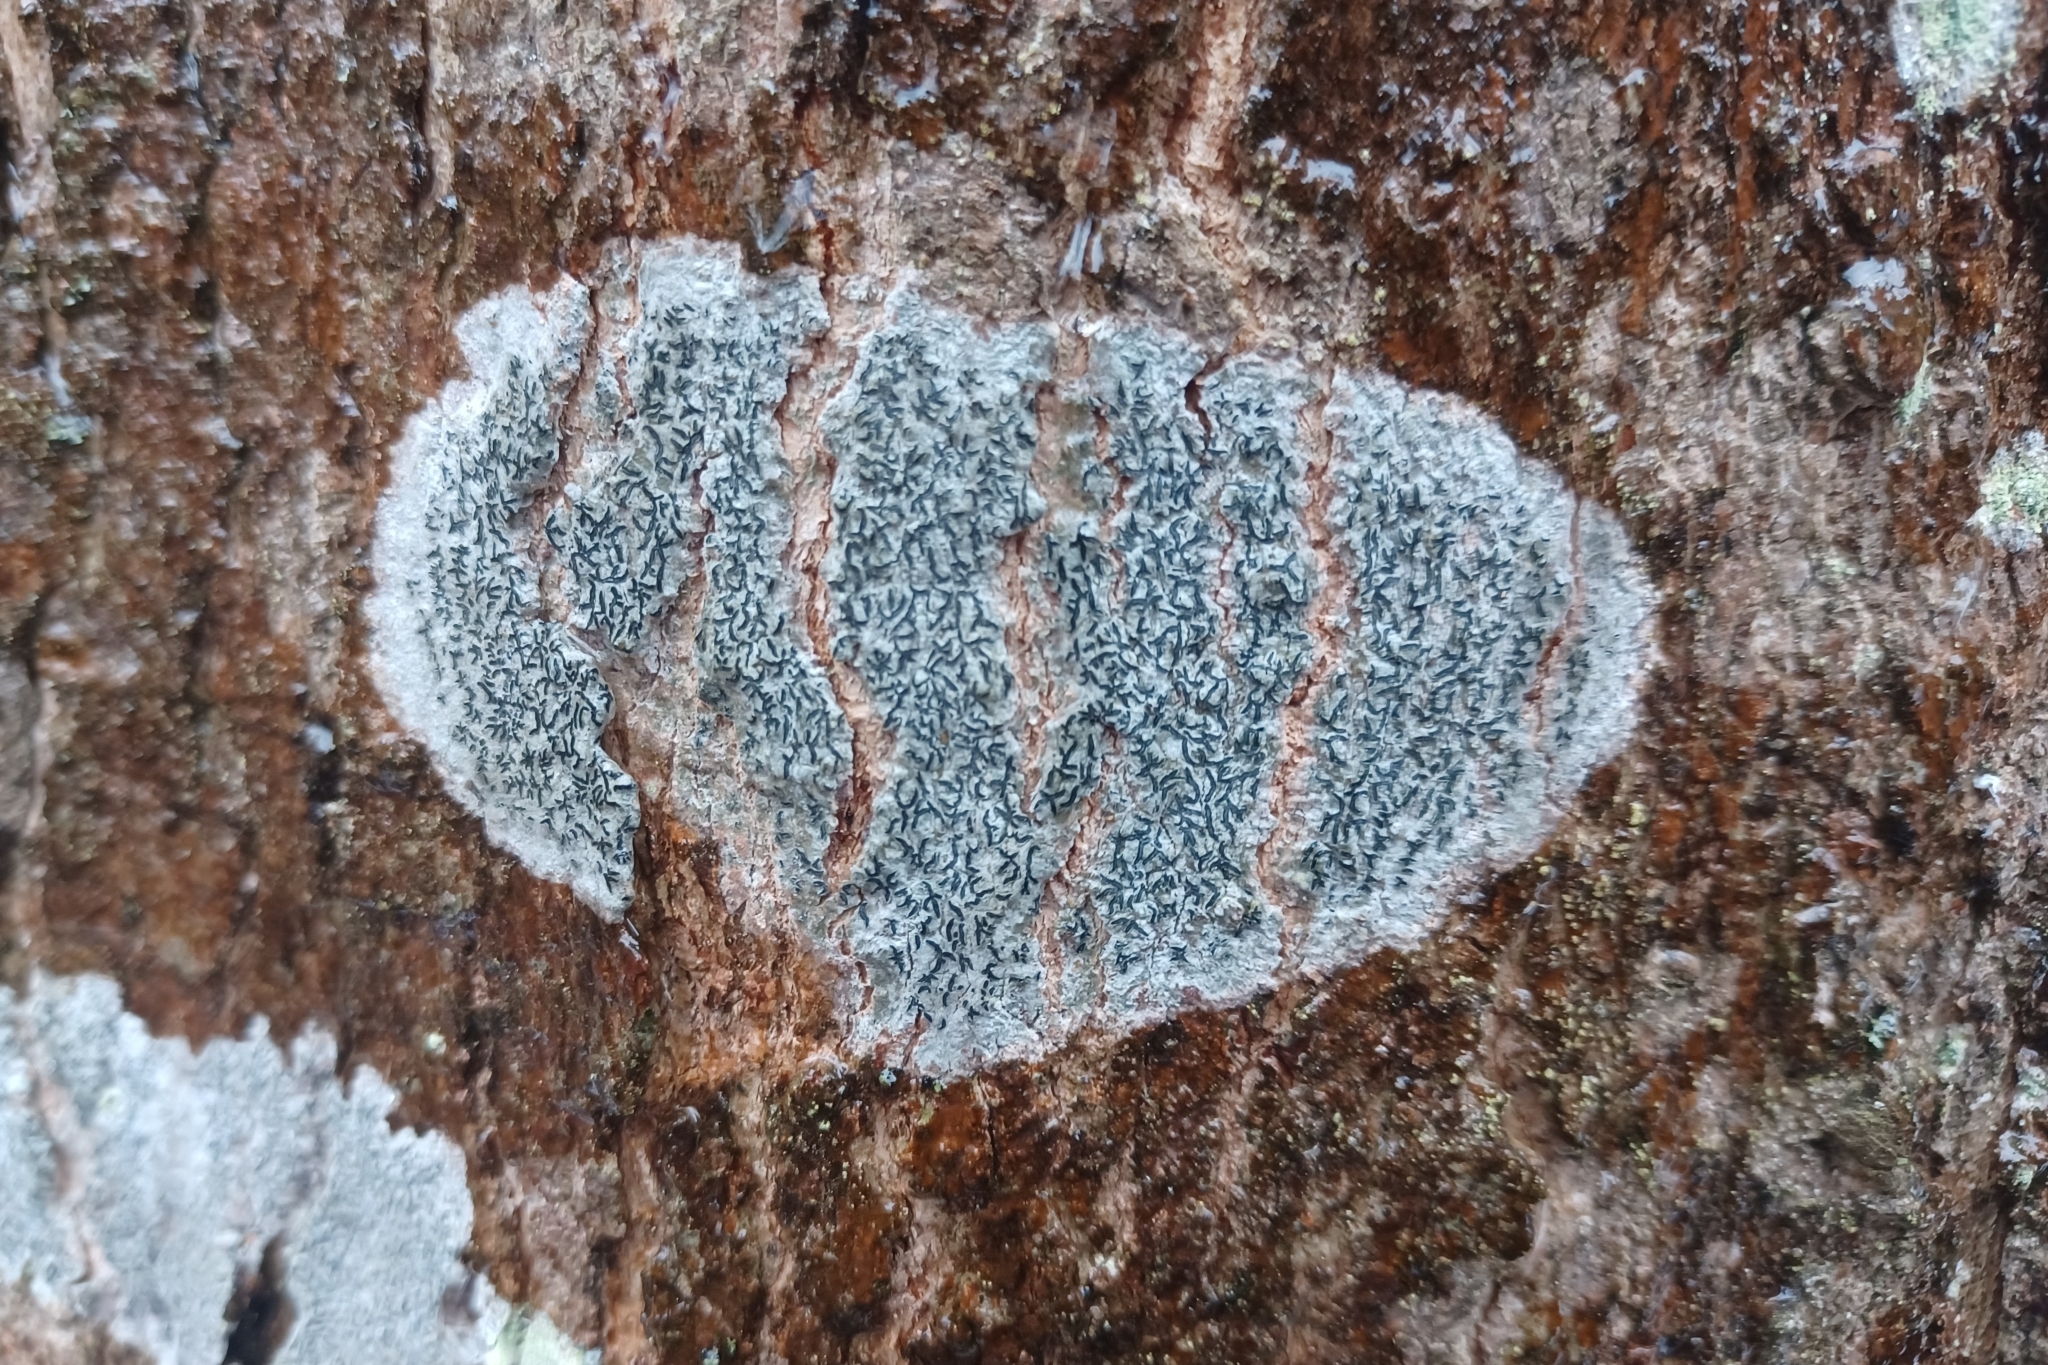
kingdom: Fungi
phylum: Ascomycota
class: Lecanoromycetes
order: Ostropales
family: Graphidaceae
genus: Graphis
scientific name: Graphis scripta
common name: Script lichen
